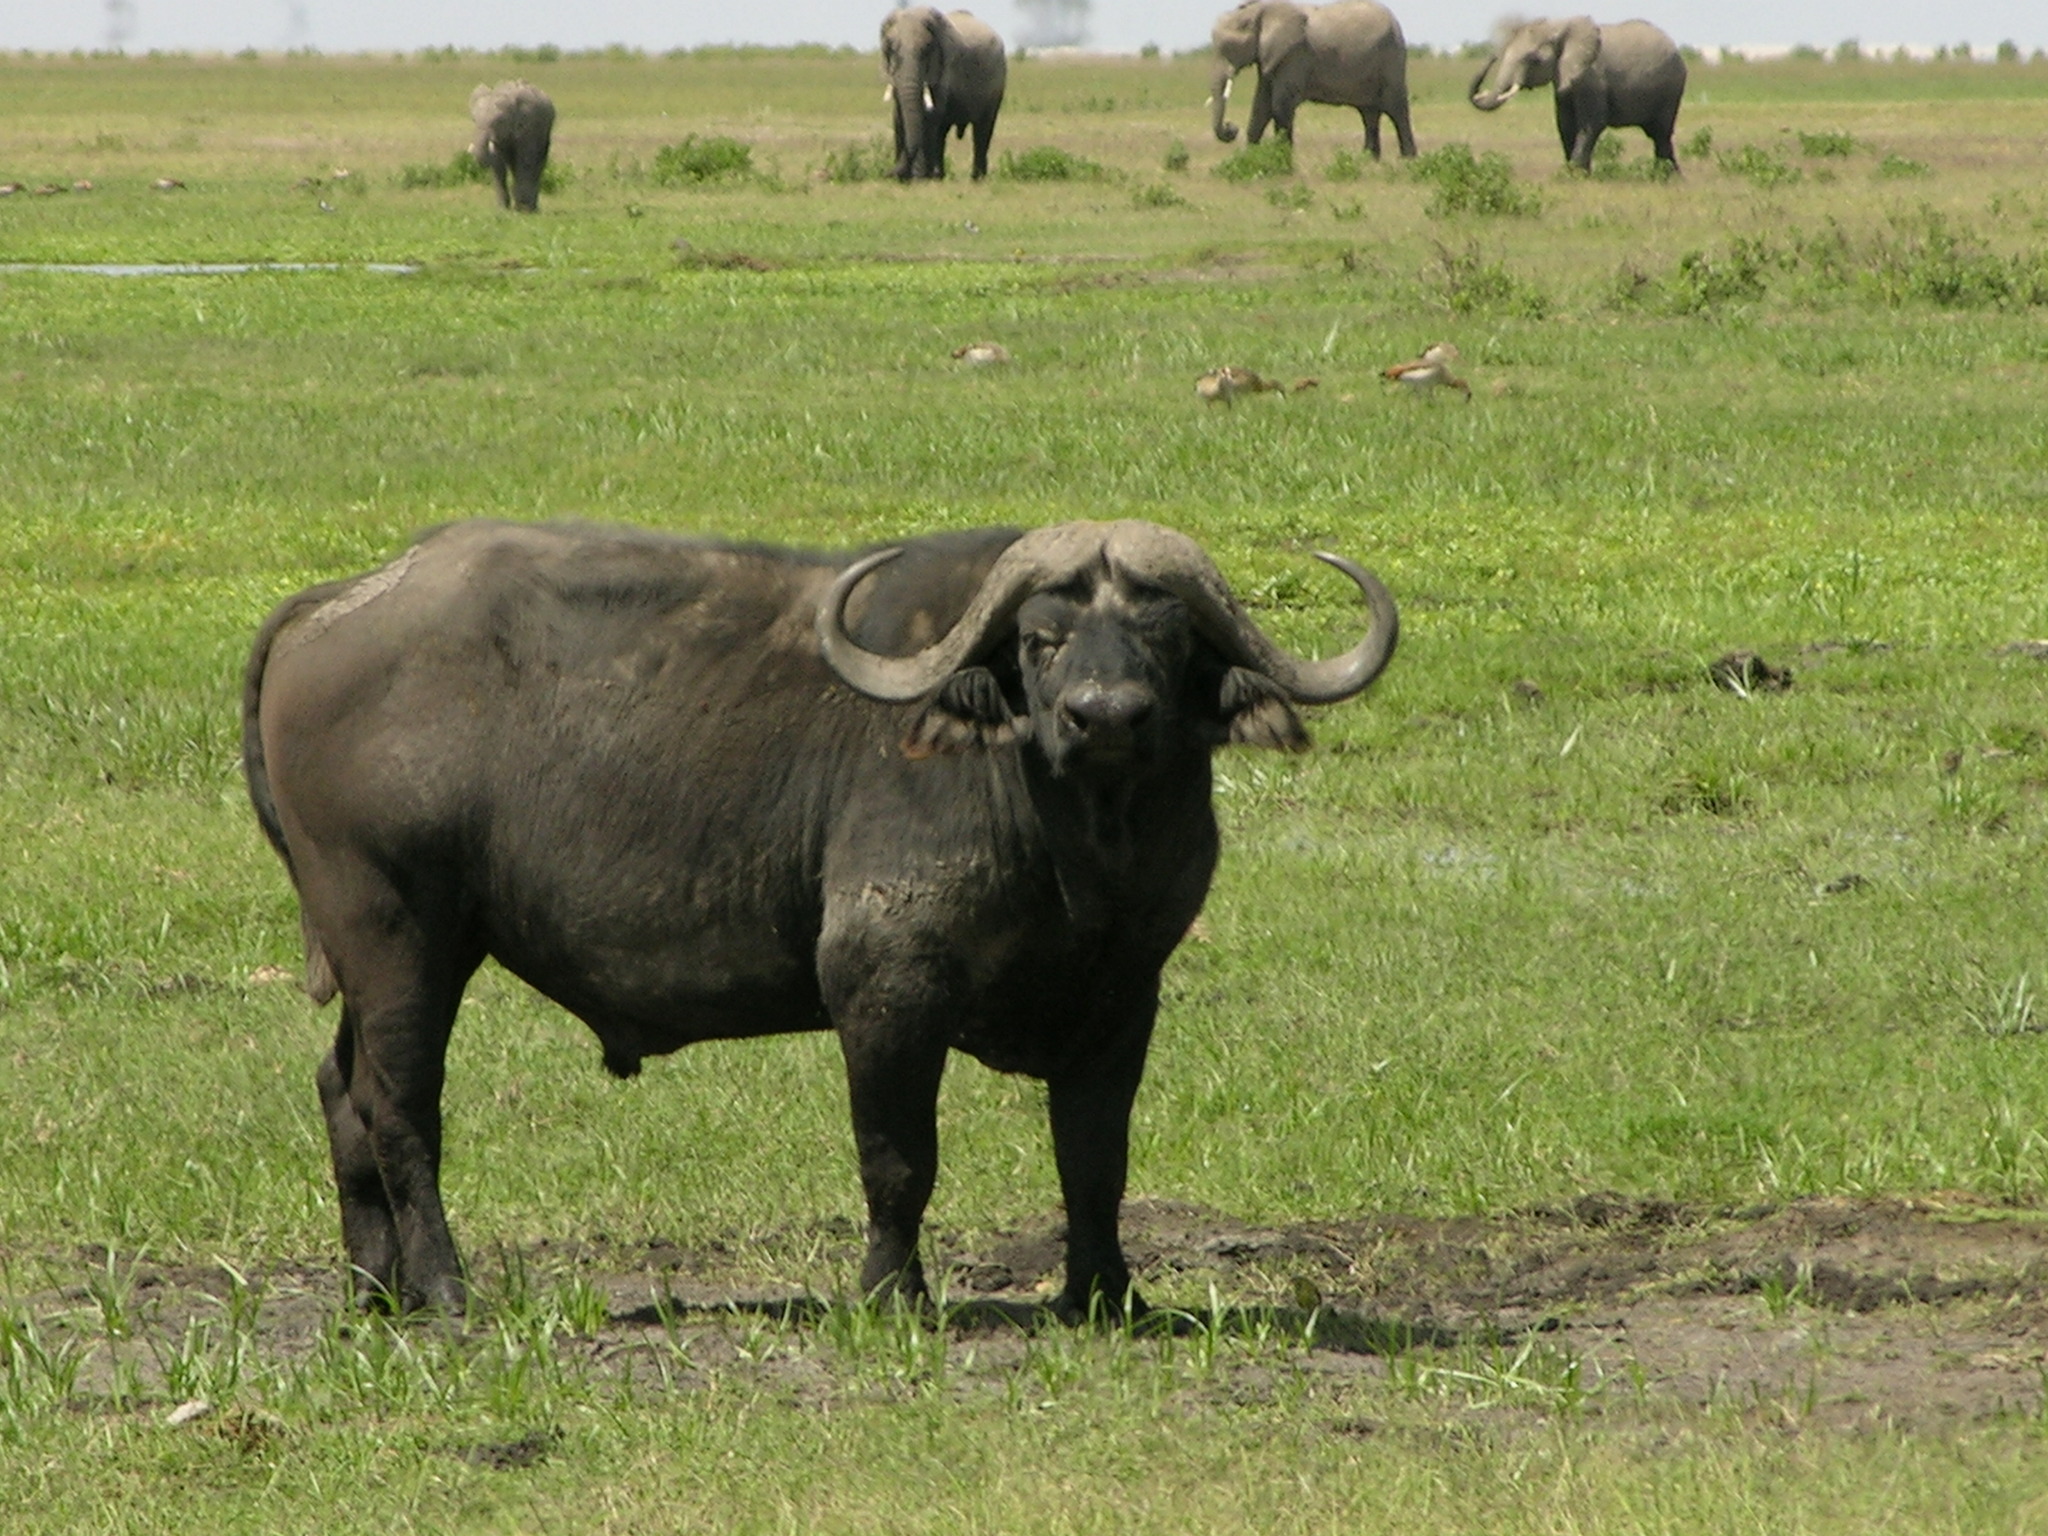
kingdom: Animalia
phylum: Chordata
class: Mammalia
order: Artiodactyla
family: Bovidae
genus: Syncerus
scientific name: Syncerus caffer
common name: African buffalo
